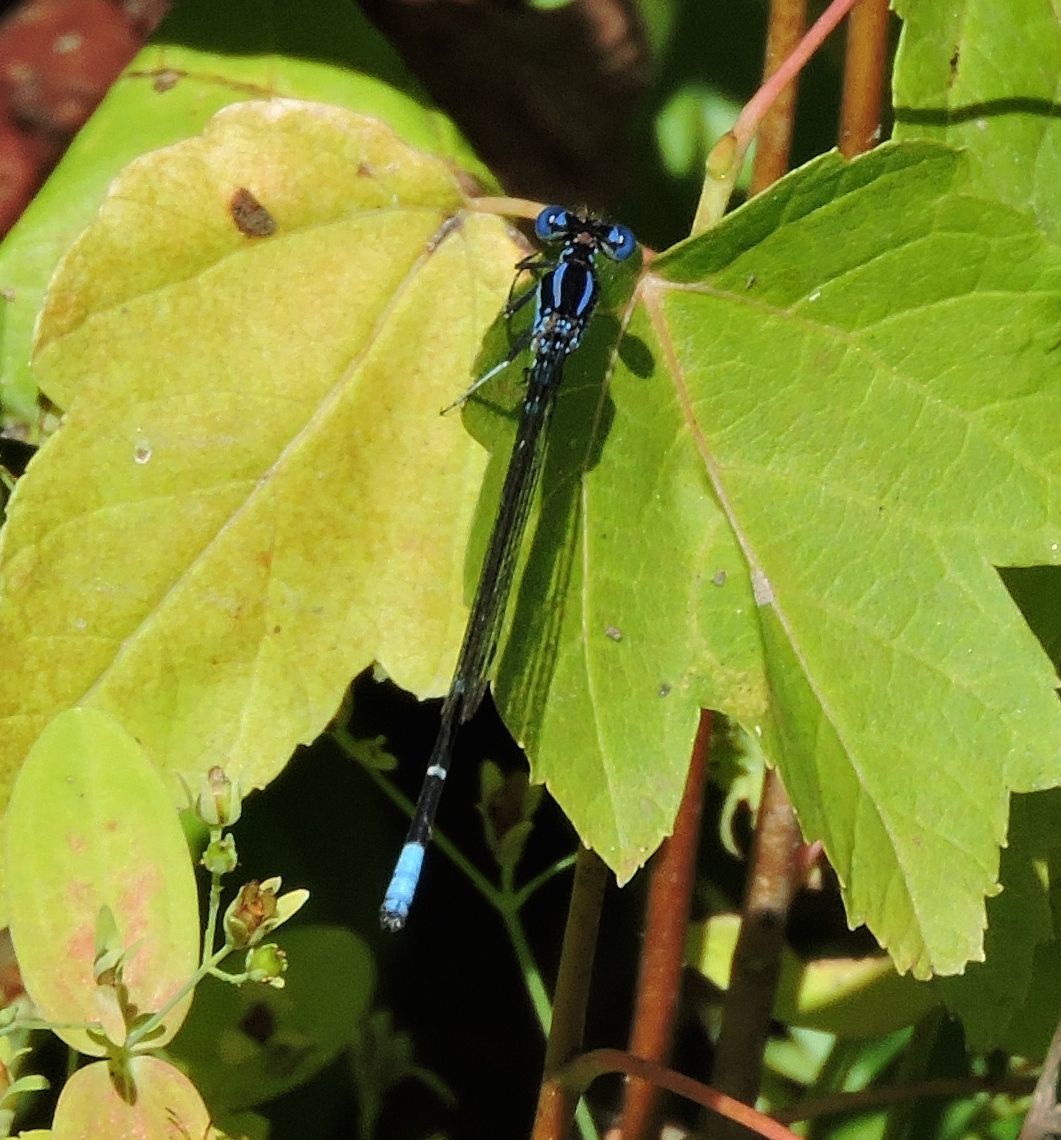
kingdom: Animalia
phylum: Arthropoda
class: Insecta
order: Odonata
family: Coenagrionidae
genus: Argia
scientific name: Argia sedula
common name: Blue-ringed dancer
